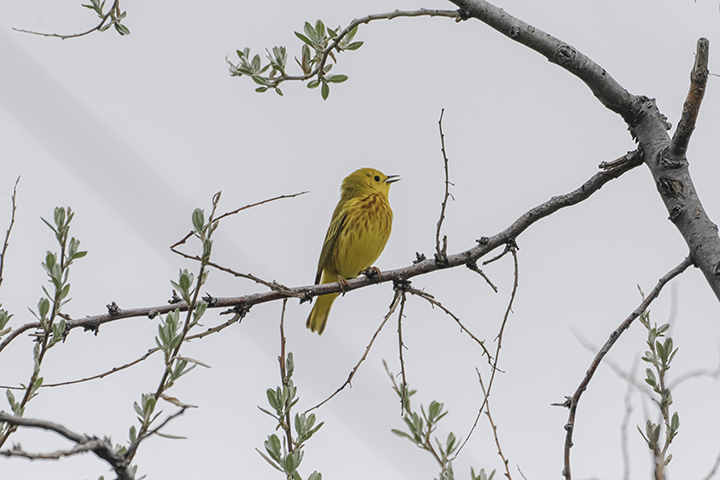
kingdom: Animalia
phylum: Chordata
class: Aves
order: Passeriformes
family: Parulidae
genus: Setophaga
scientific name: Setophaga petechia
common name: Yellow warbler
